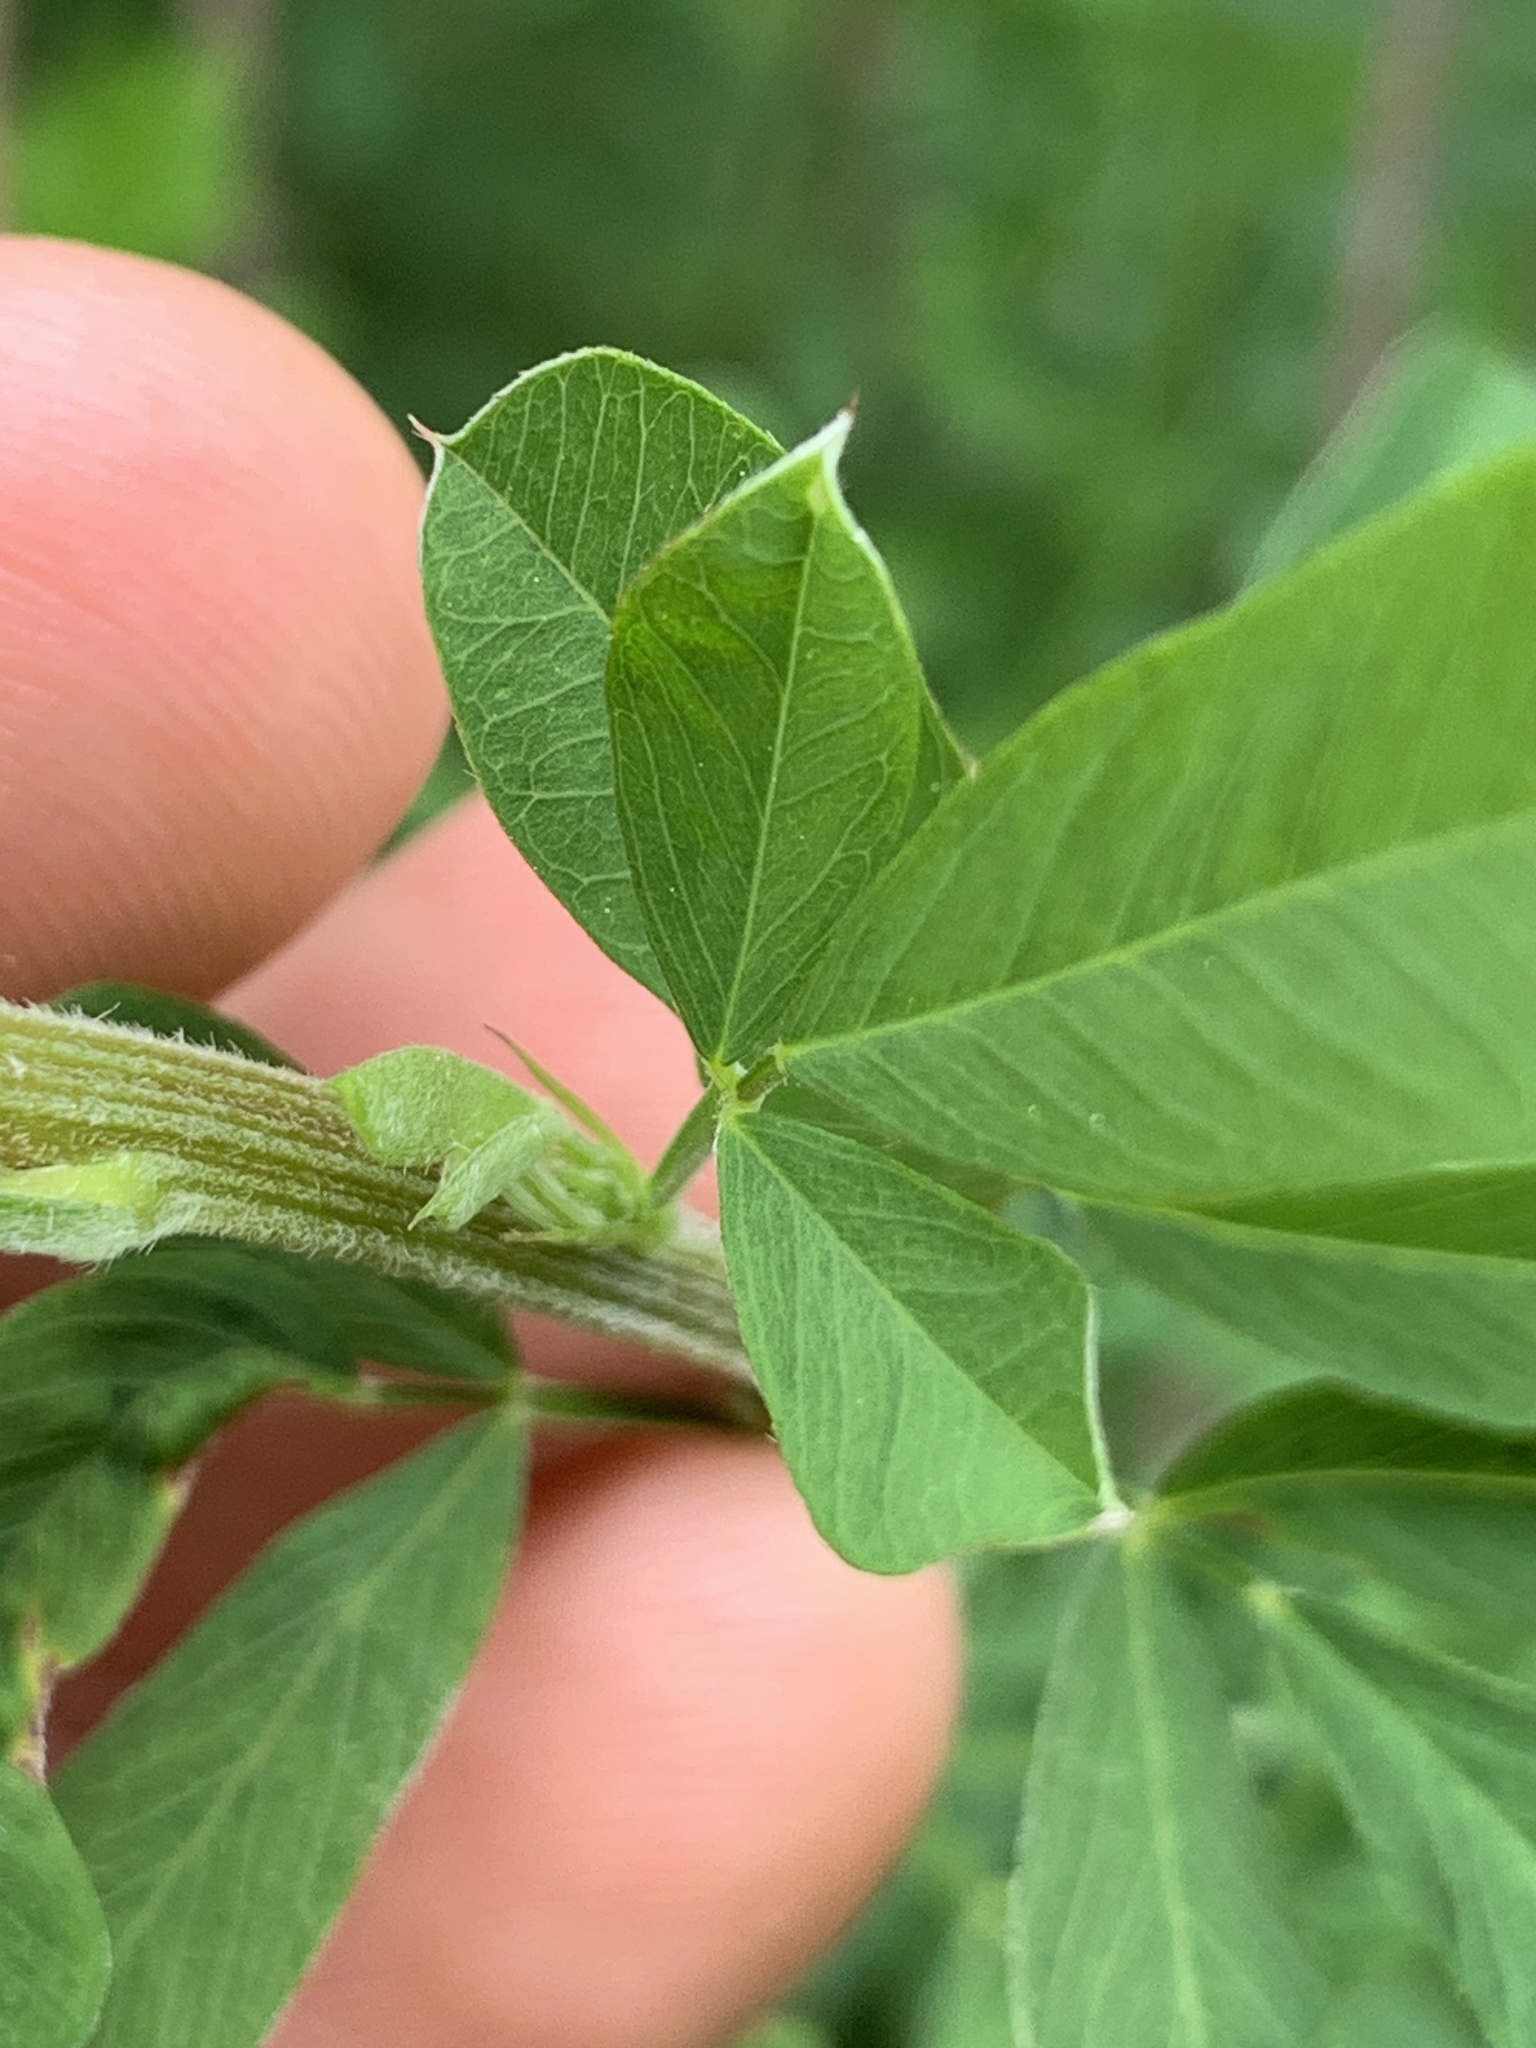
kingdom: Plantae
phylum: Tracheophyta
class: Magnoliopsida
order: Fabales
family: Fabaceae
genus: Lespedeza
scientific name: Lespedeza cuneata
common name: Chinese bush-clover
